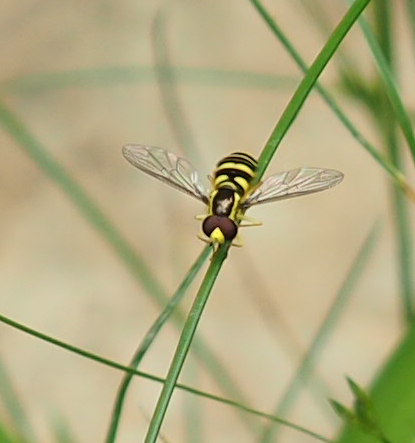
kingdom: Animalia
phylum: Arthropoda
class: Insecta
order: Diptera
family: Syrphidae
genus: Philhelius
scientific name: Philhelius flavipes
